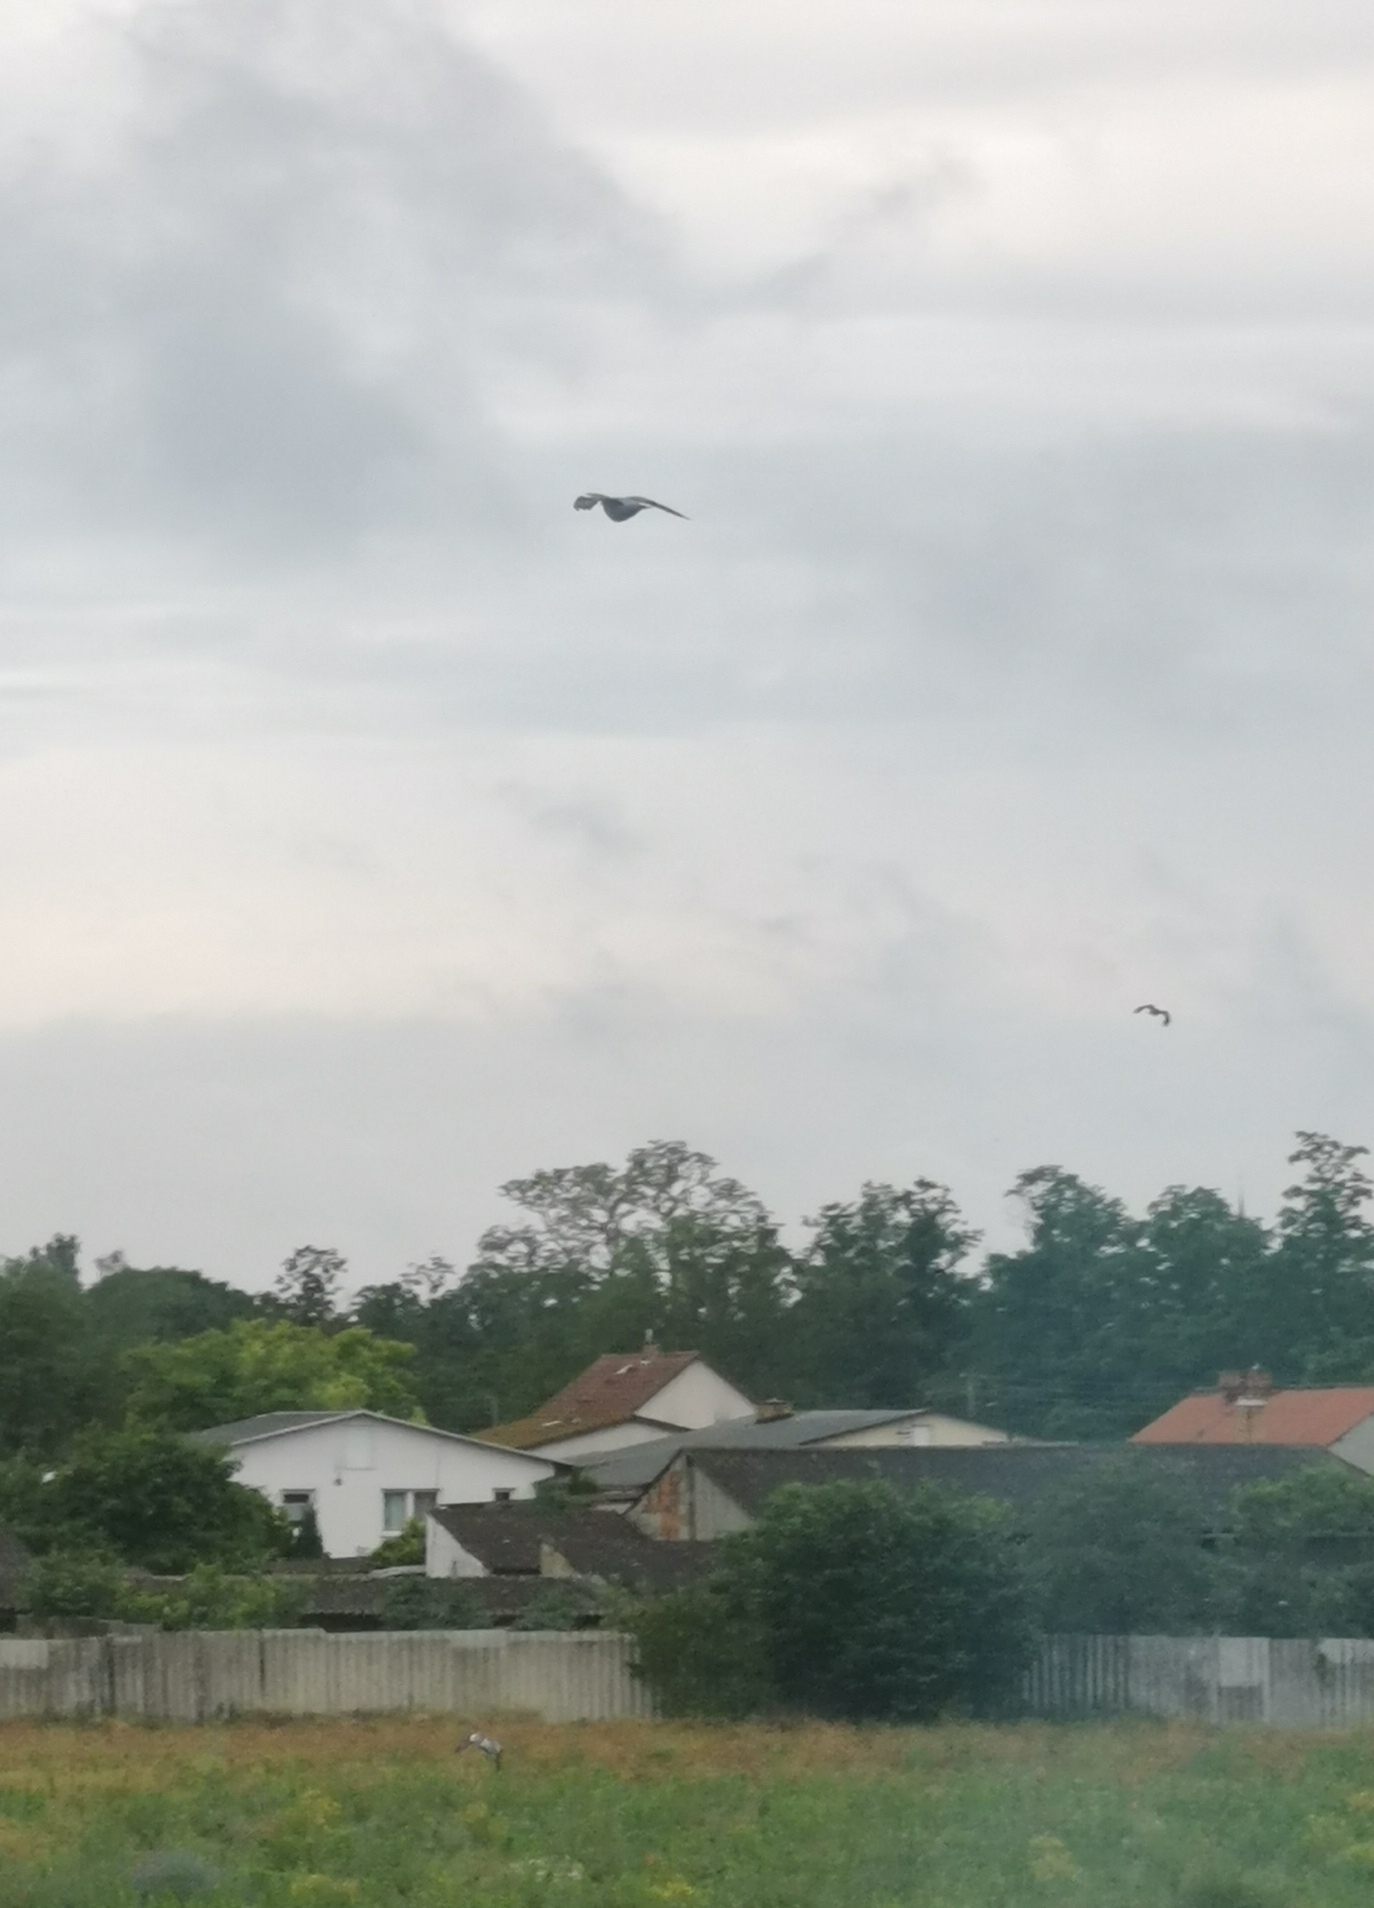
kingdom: Animalia
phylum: Chordata
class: Aves
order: Columbiformes
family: Columbidae
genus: Columba
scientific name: Columba palumbus
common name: Common wood pigeon
